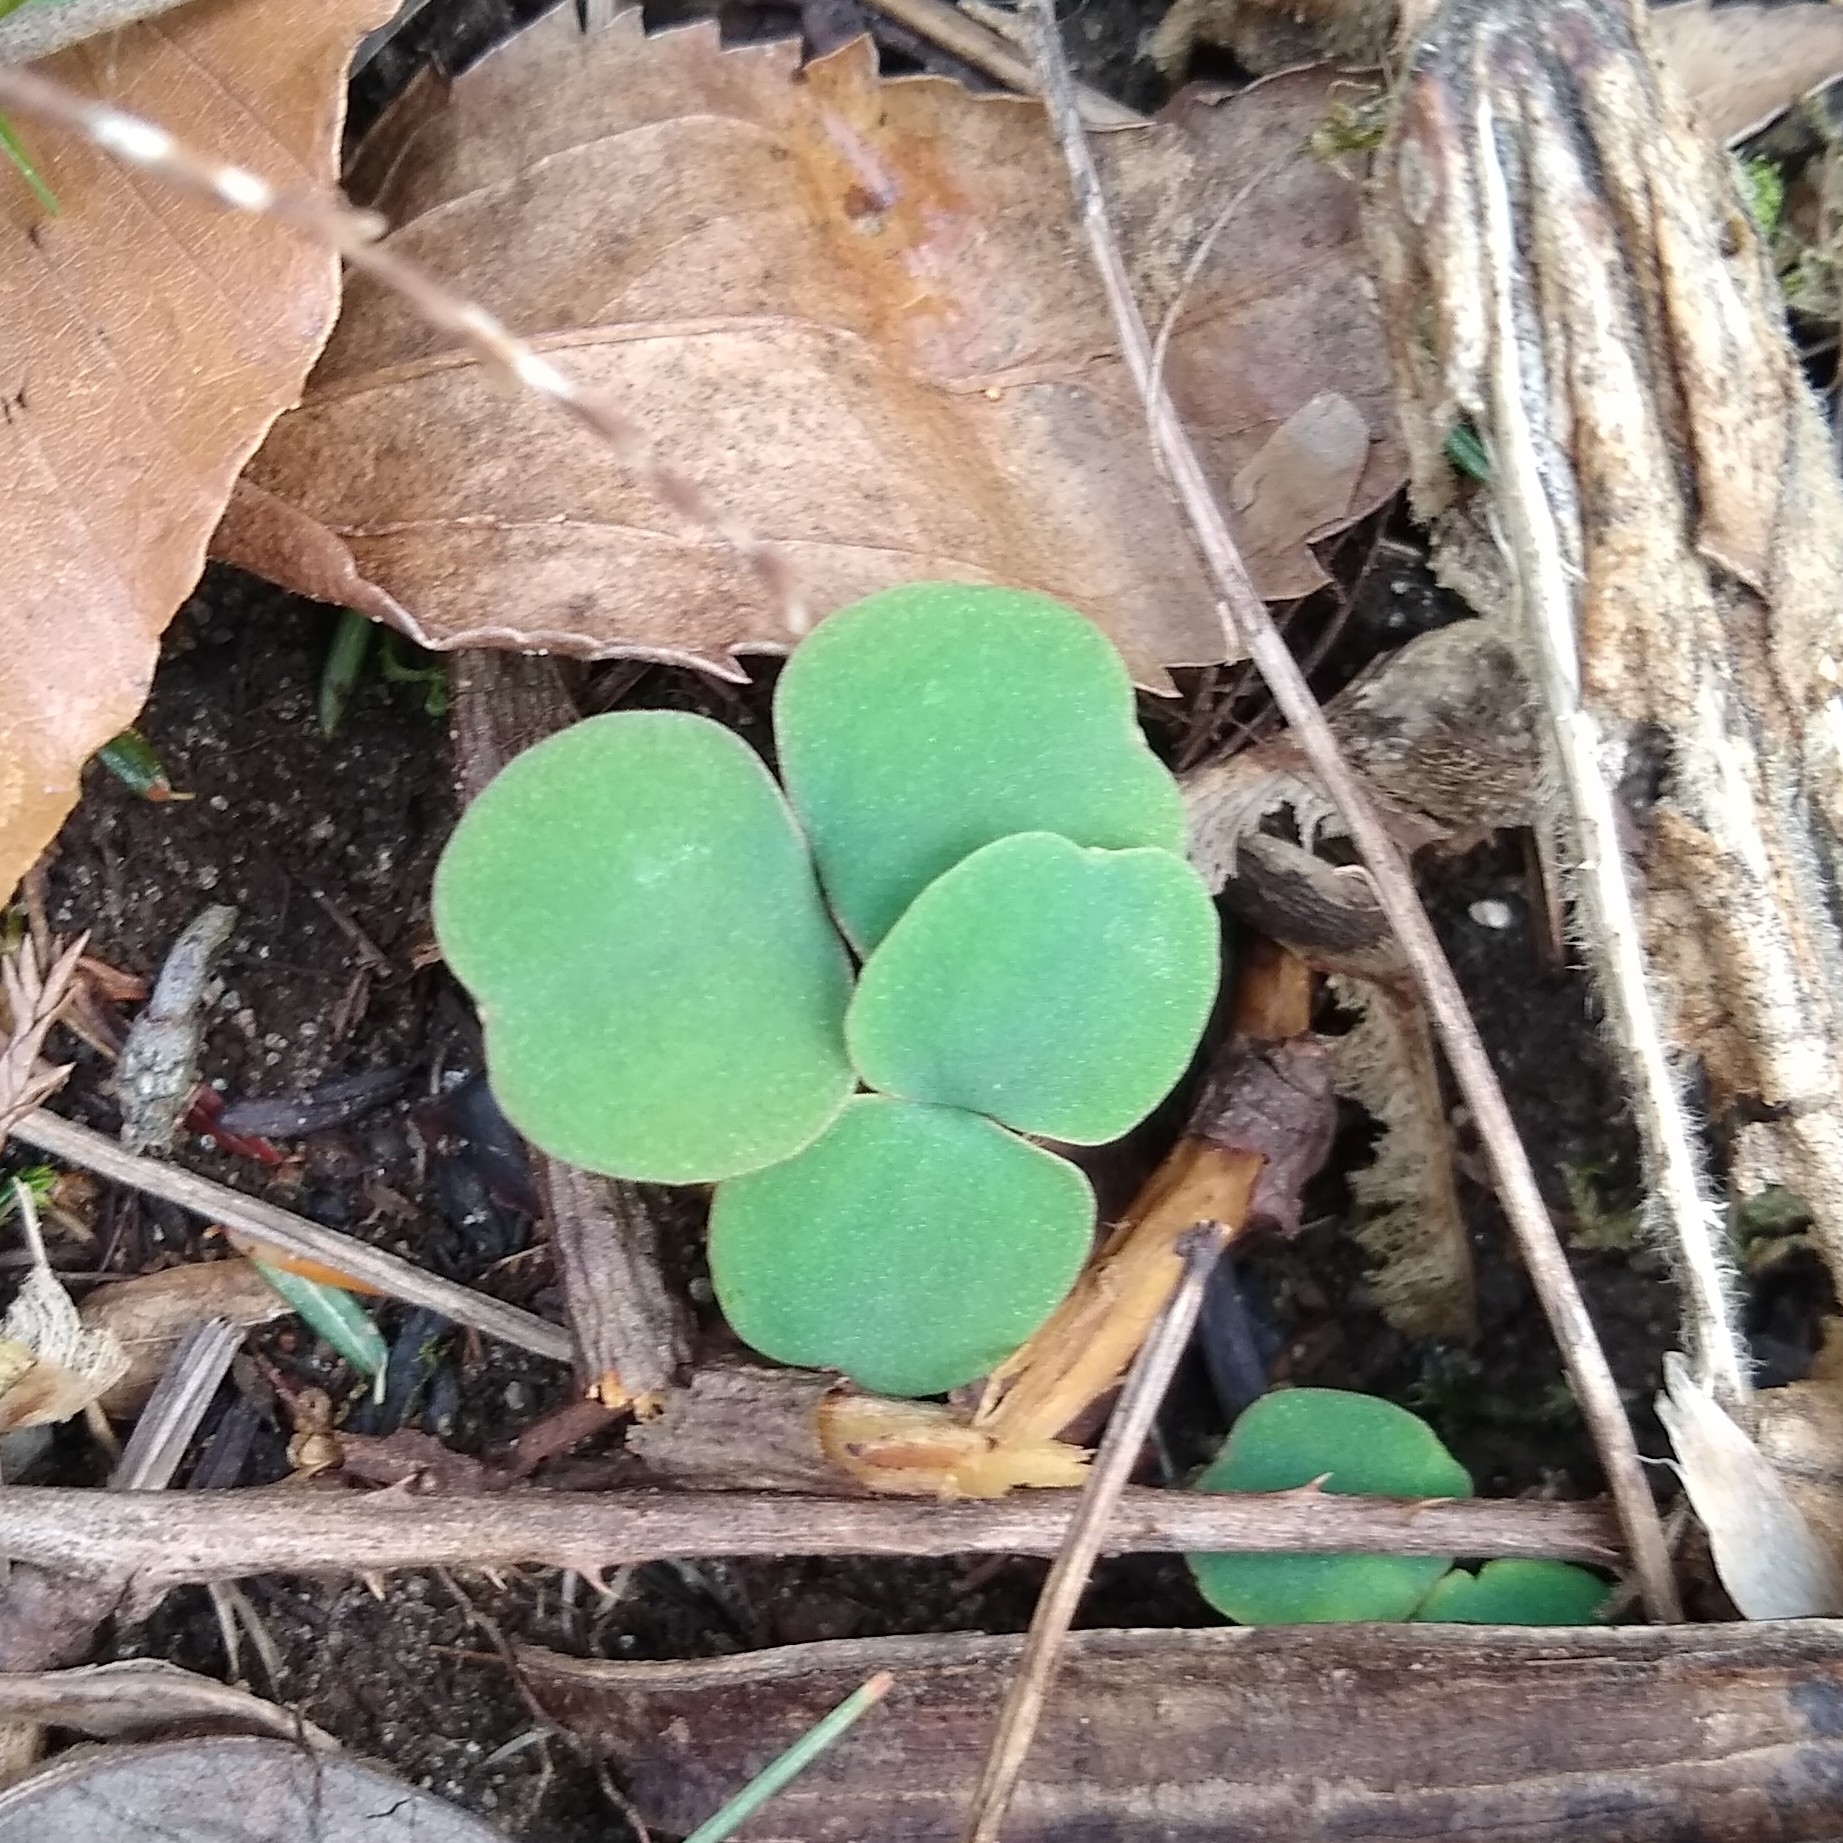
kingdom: Plantae
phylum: Tracheophyta
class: Magnoliopsida
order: Ericales
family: Balsaminaceae
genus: Impatiens
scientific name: Impatiens capensis
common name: Orange balsam
